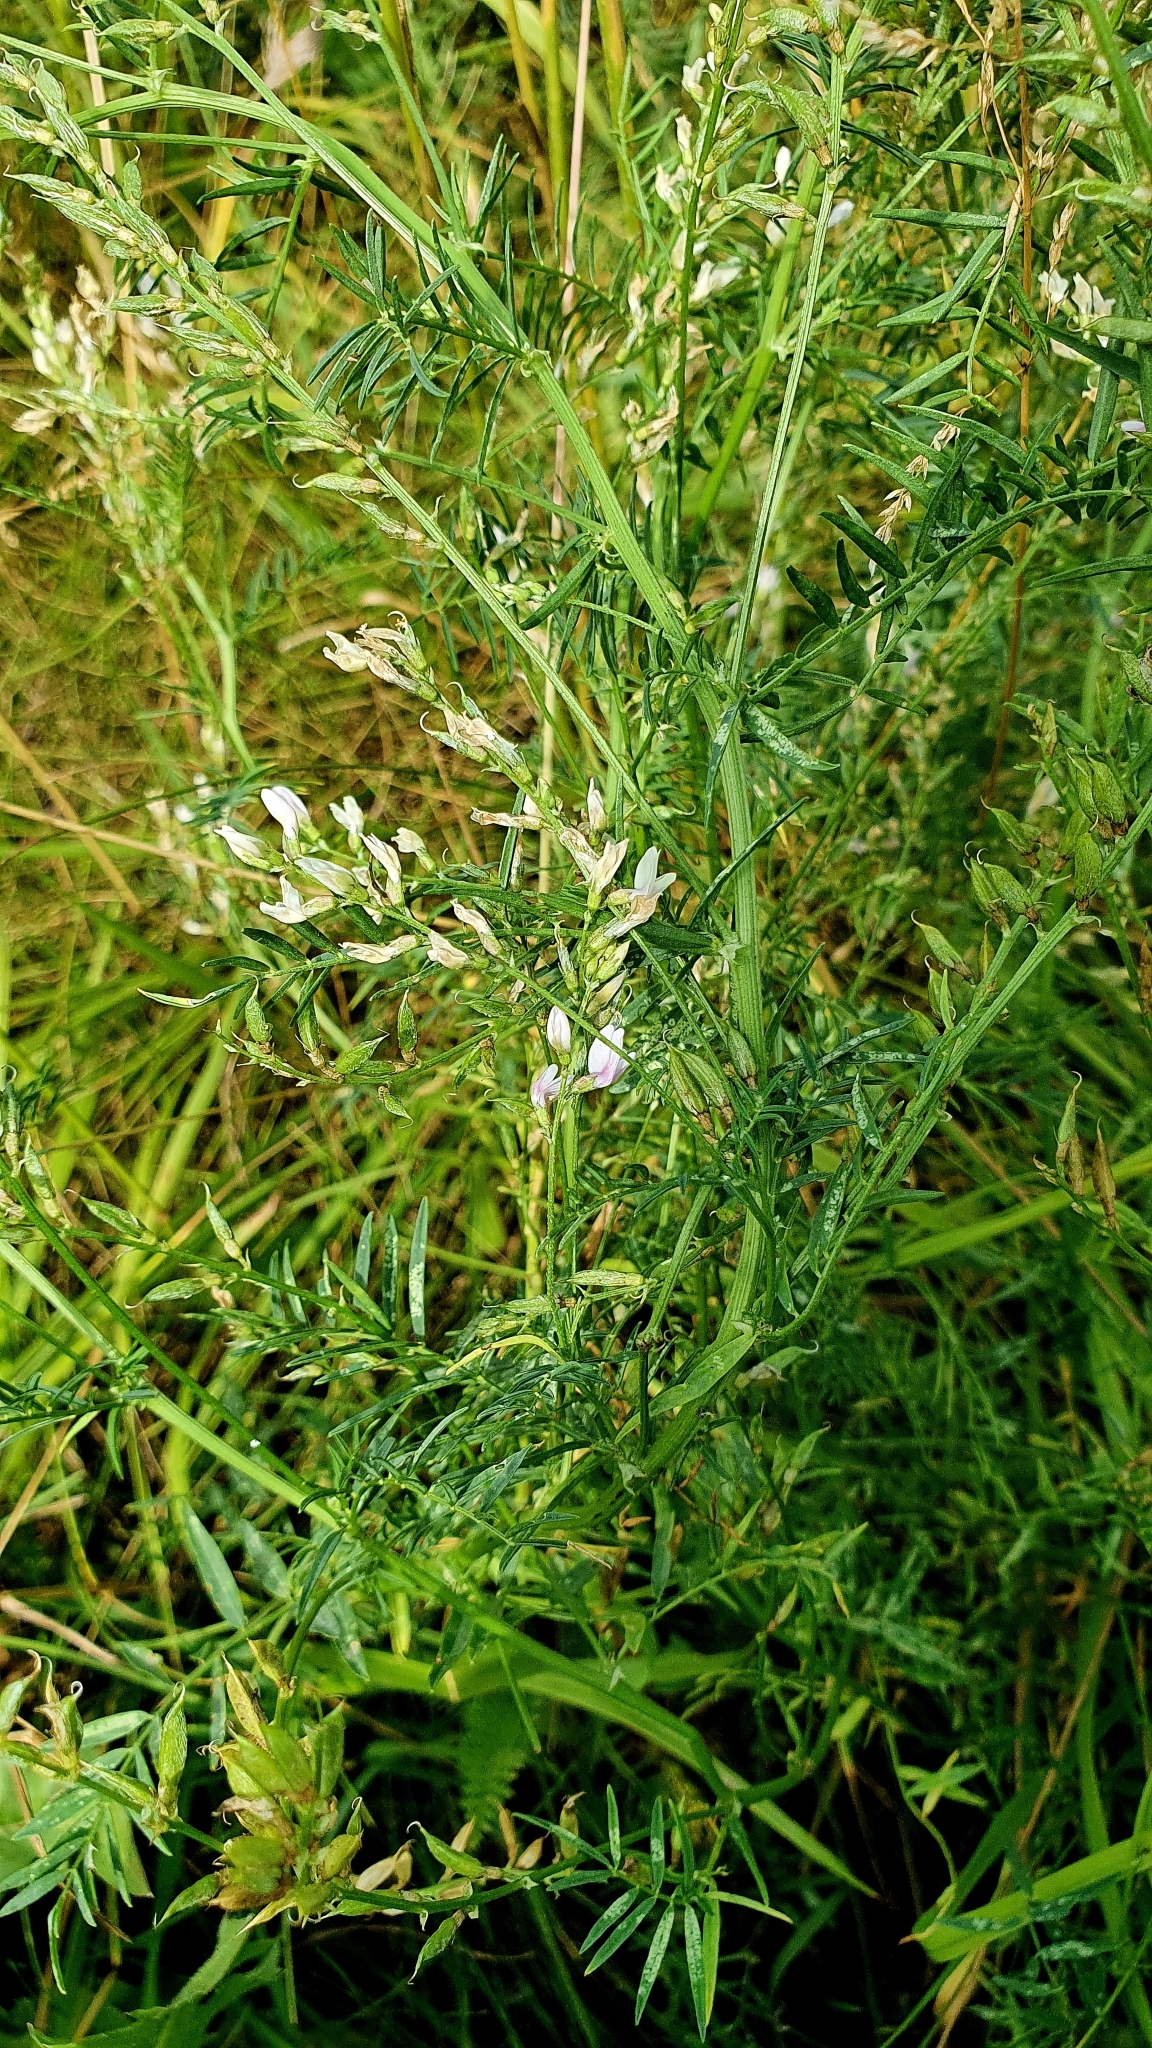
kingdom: Plantae
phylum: Tracheophyta
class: Magnoliopsida
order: Fabales
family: Fabaceae
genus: Astragalus
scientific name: Astragalus sulcatus
